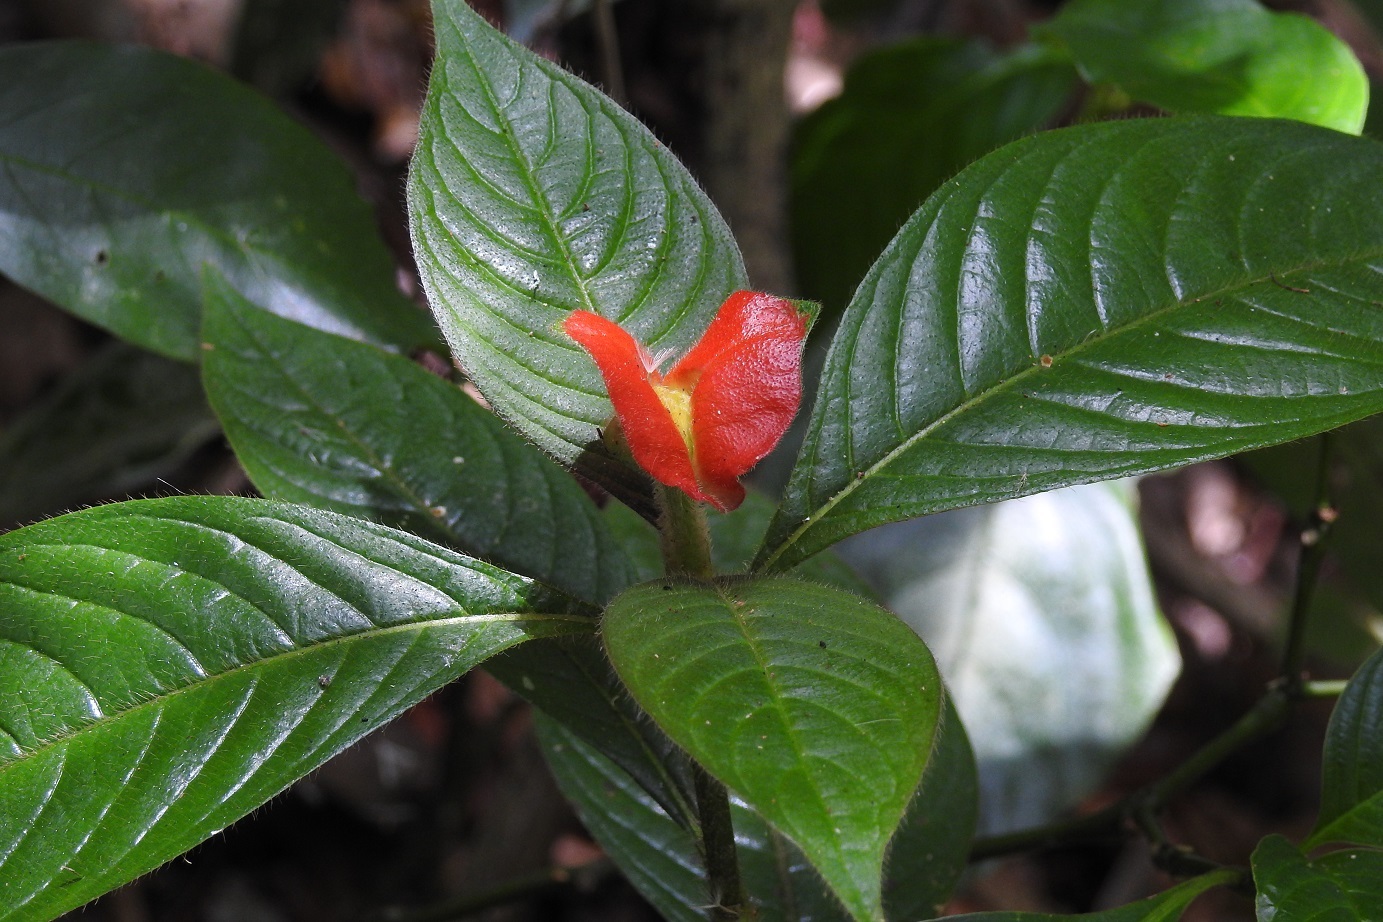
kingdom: Plantae
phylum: Tracheophyta
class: Magnoliopsida
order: Gentianales
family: Rubiaceae
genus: Palicourea
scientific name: Palicourea tomentosa
